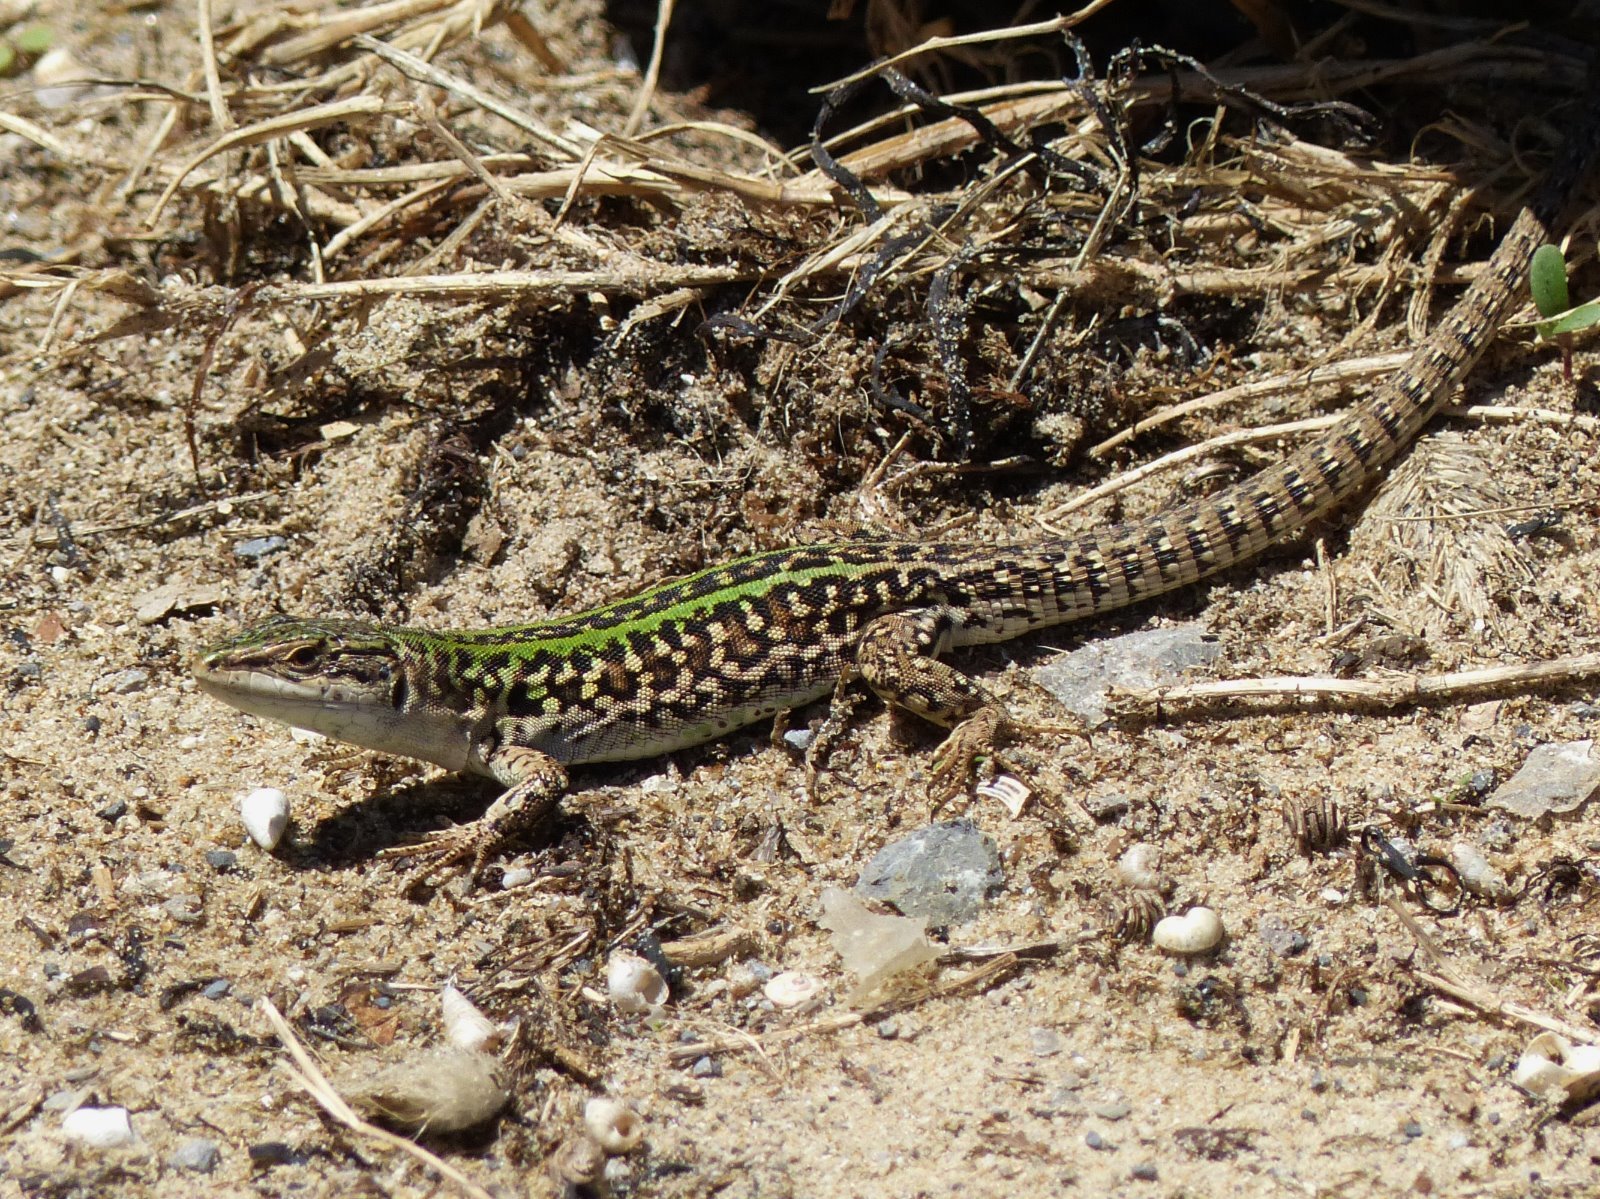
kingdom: Animalia
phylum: Chordata
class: Squamata
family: Lacertidae
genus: Podarcis
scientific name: Podarcis siculus
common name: Italian wall lizard
